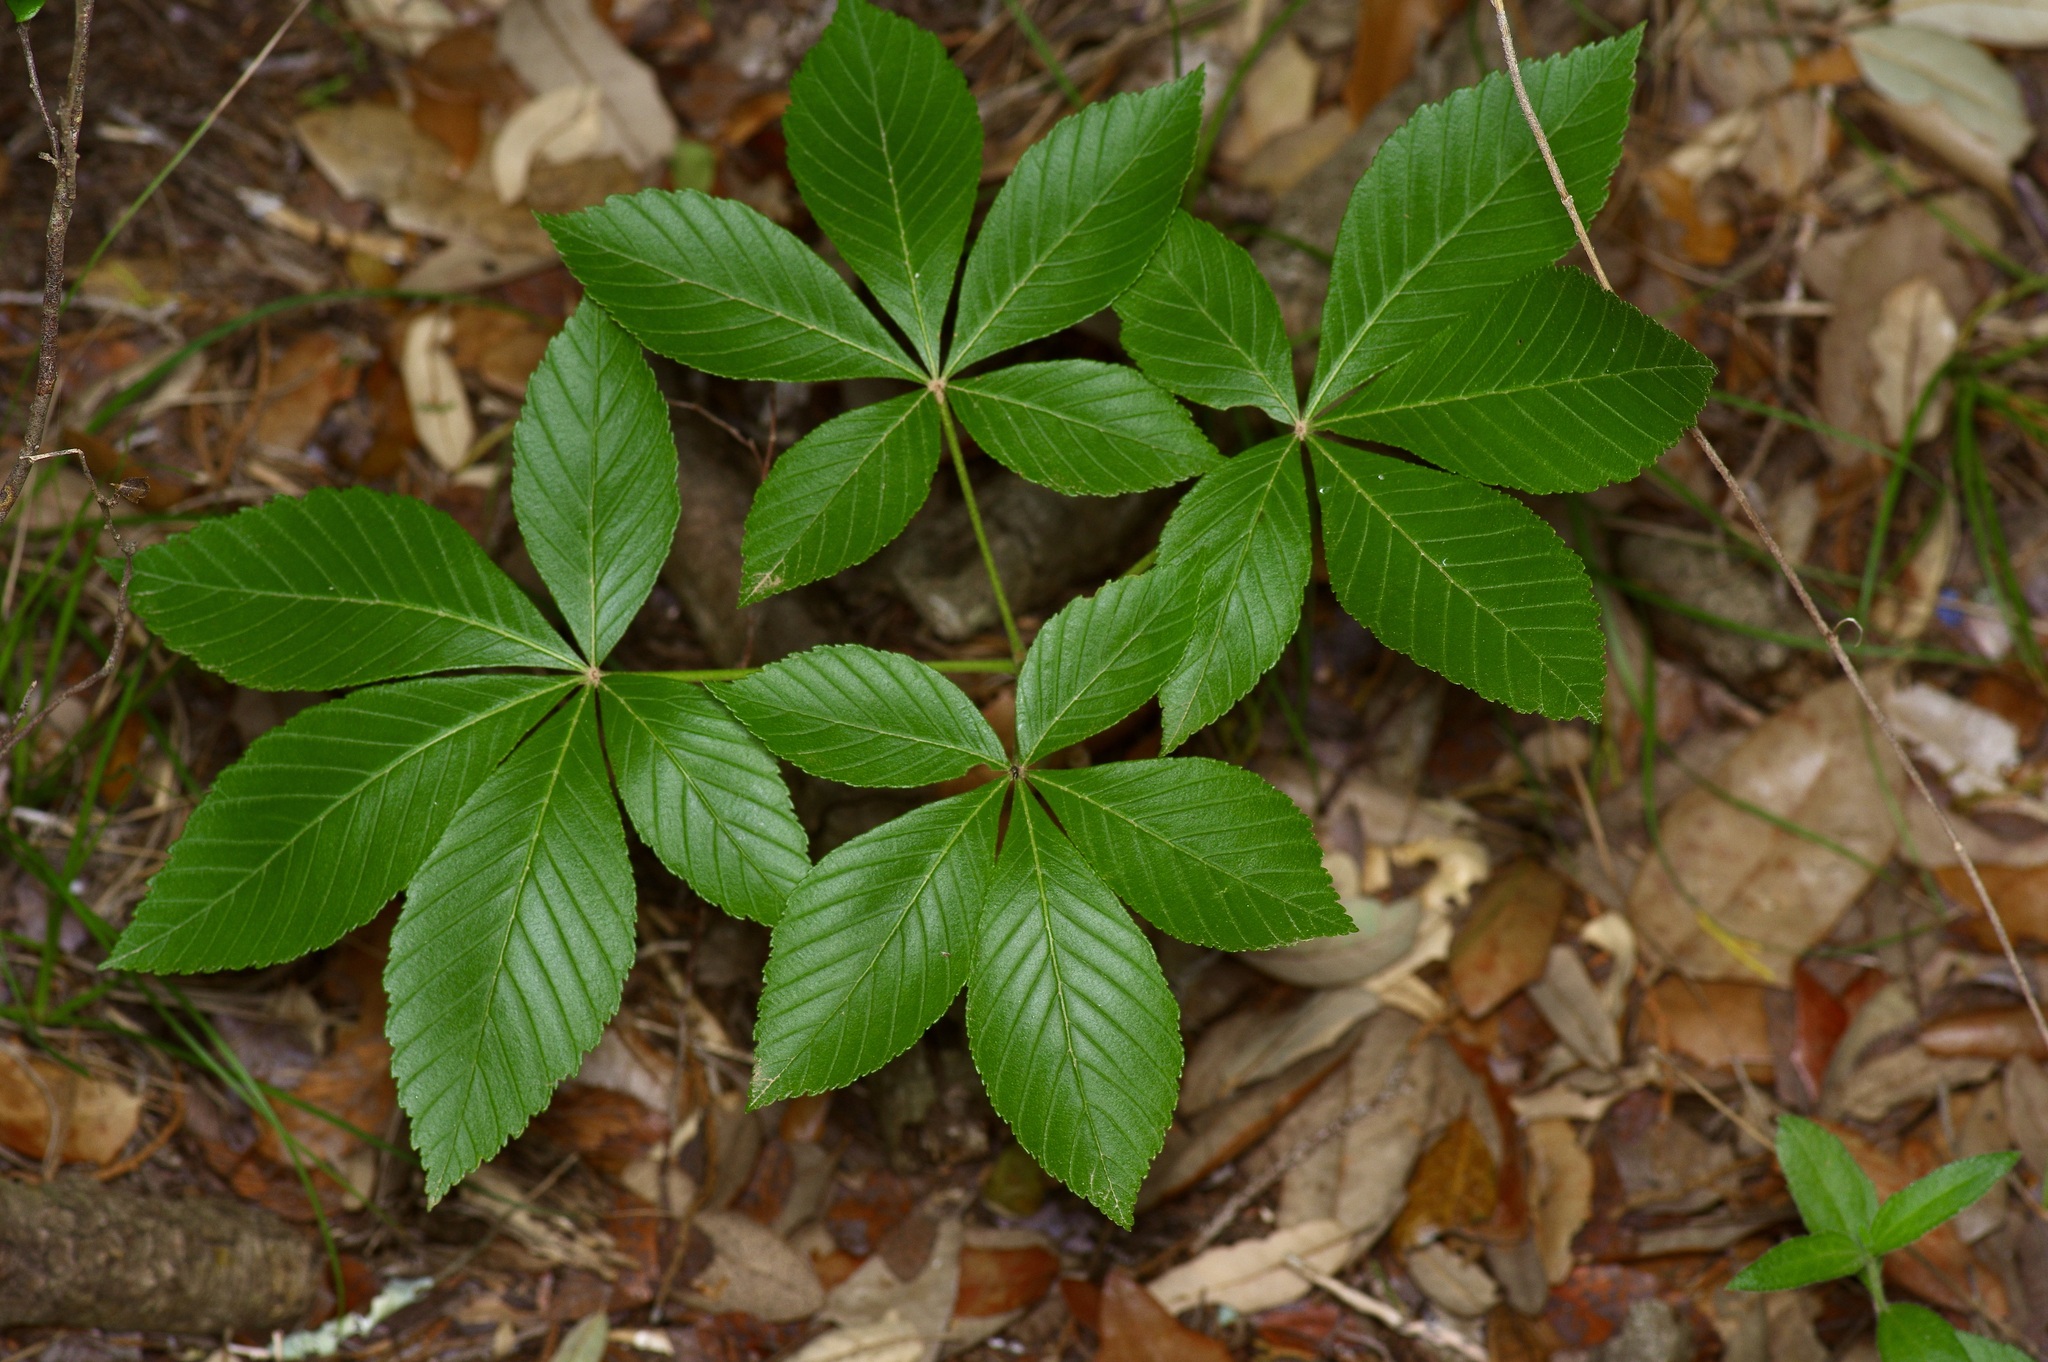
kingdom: Plantae
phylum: Tracheophyta
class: Magnoliopsida
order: Sapindales
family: Sapindaceae
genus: Aesculus
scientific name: Aesculus pavia
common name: Red buckeye
